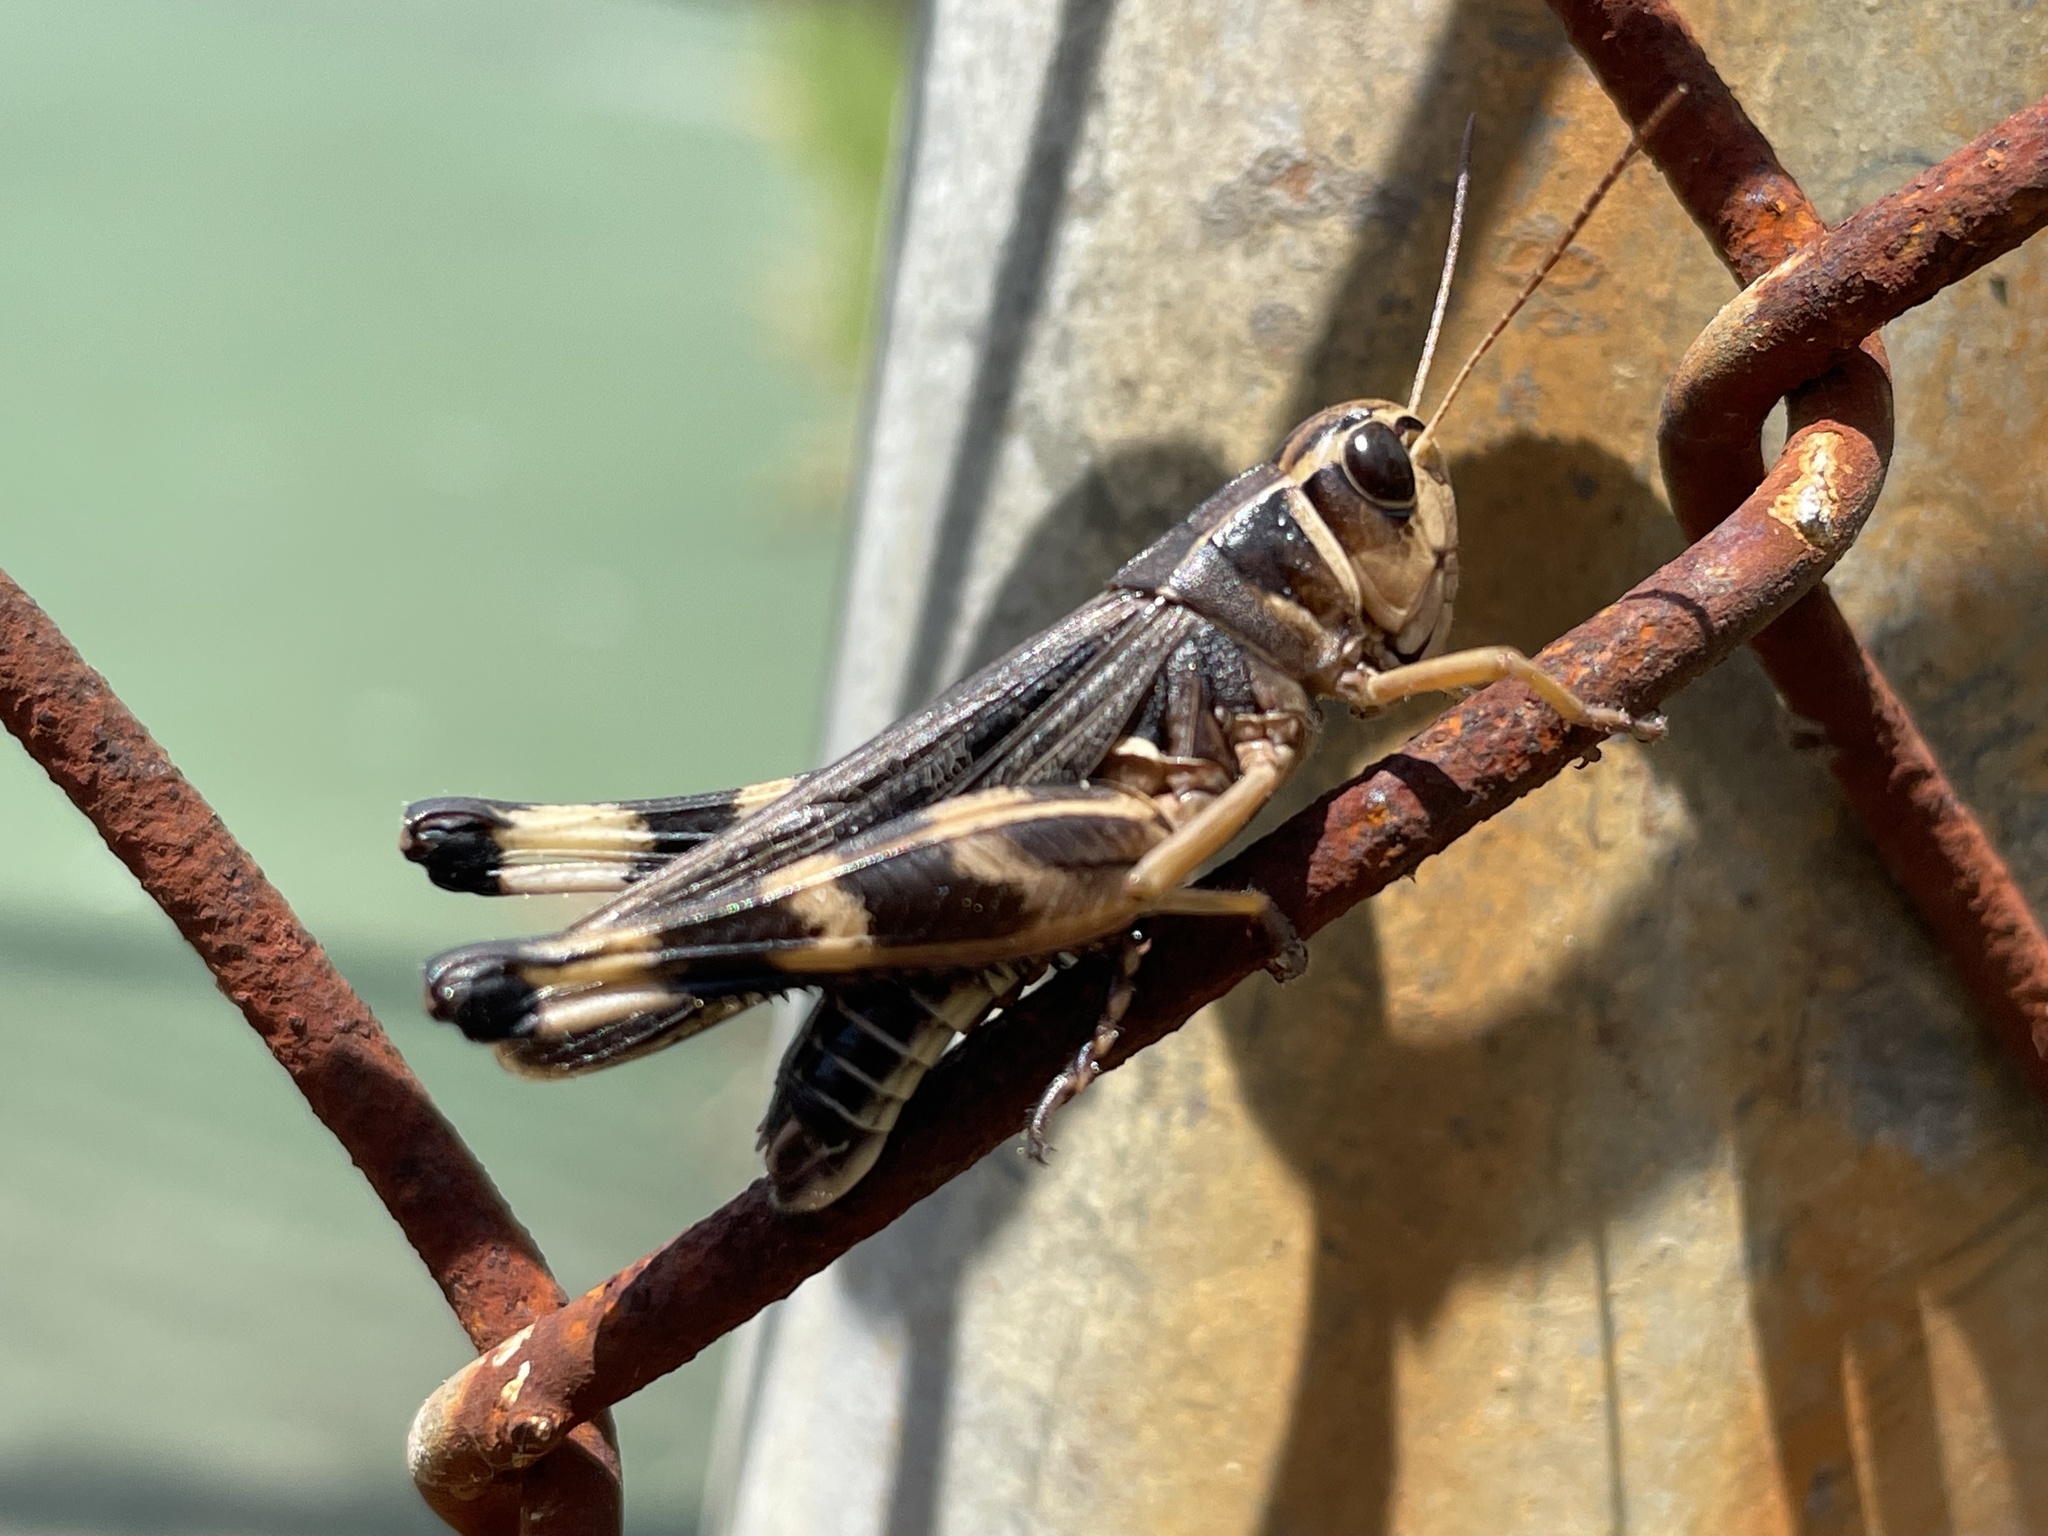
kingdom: Animalia
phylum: Arthropoda
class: Insecta
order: Orthoptera
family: Acrididae
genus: Boopedon
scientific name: Boopedon gracile
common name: Graceful range grasshopper
